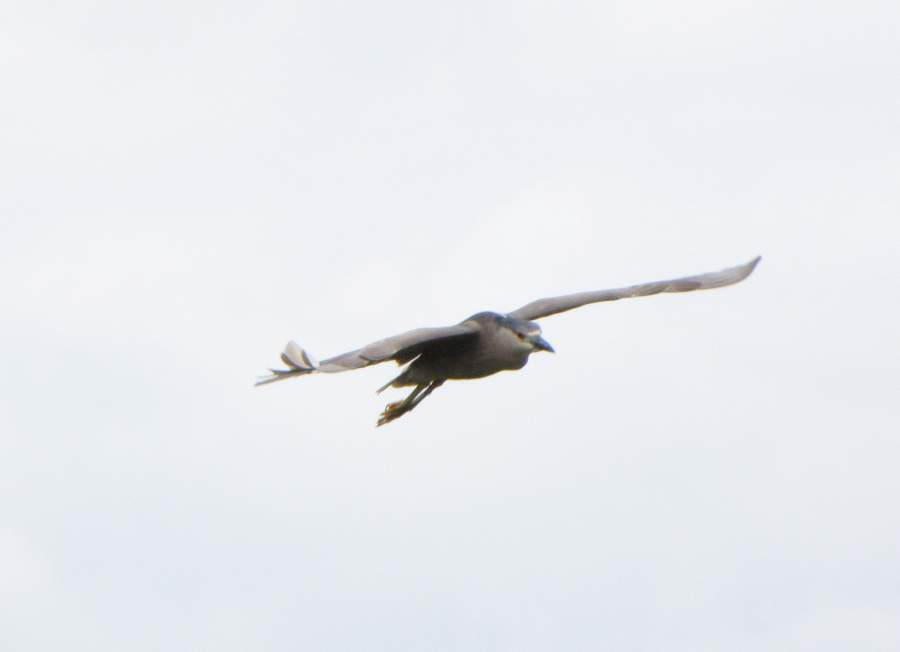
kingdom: Animalia
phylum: Chordata
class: Aves
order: Pelecaniformes
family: Ardeidae
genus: Nycticorax
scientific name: Nycticorax nycticorax
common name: Black-crowned night heron
